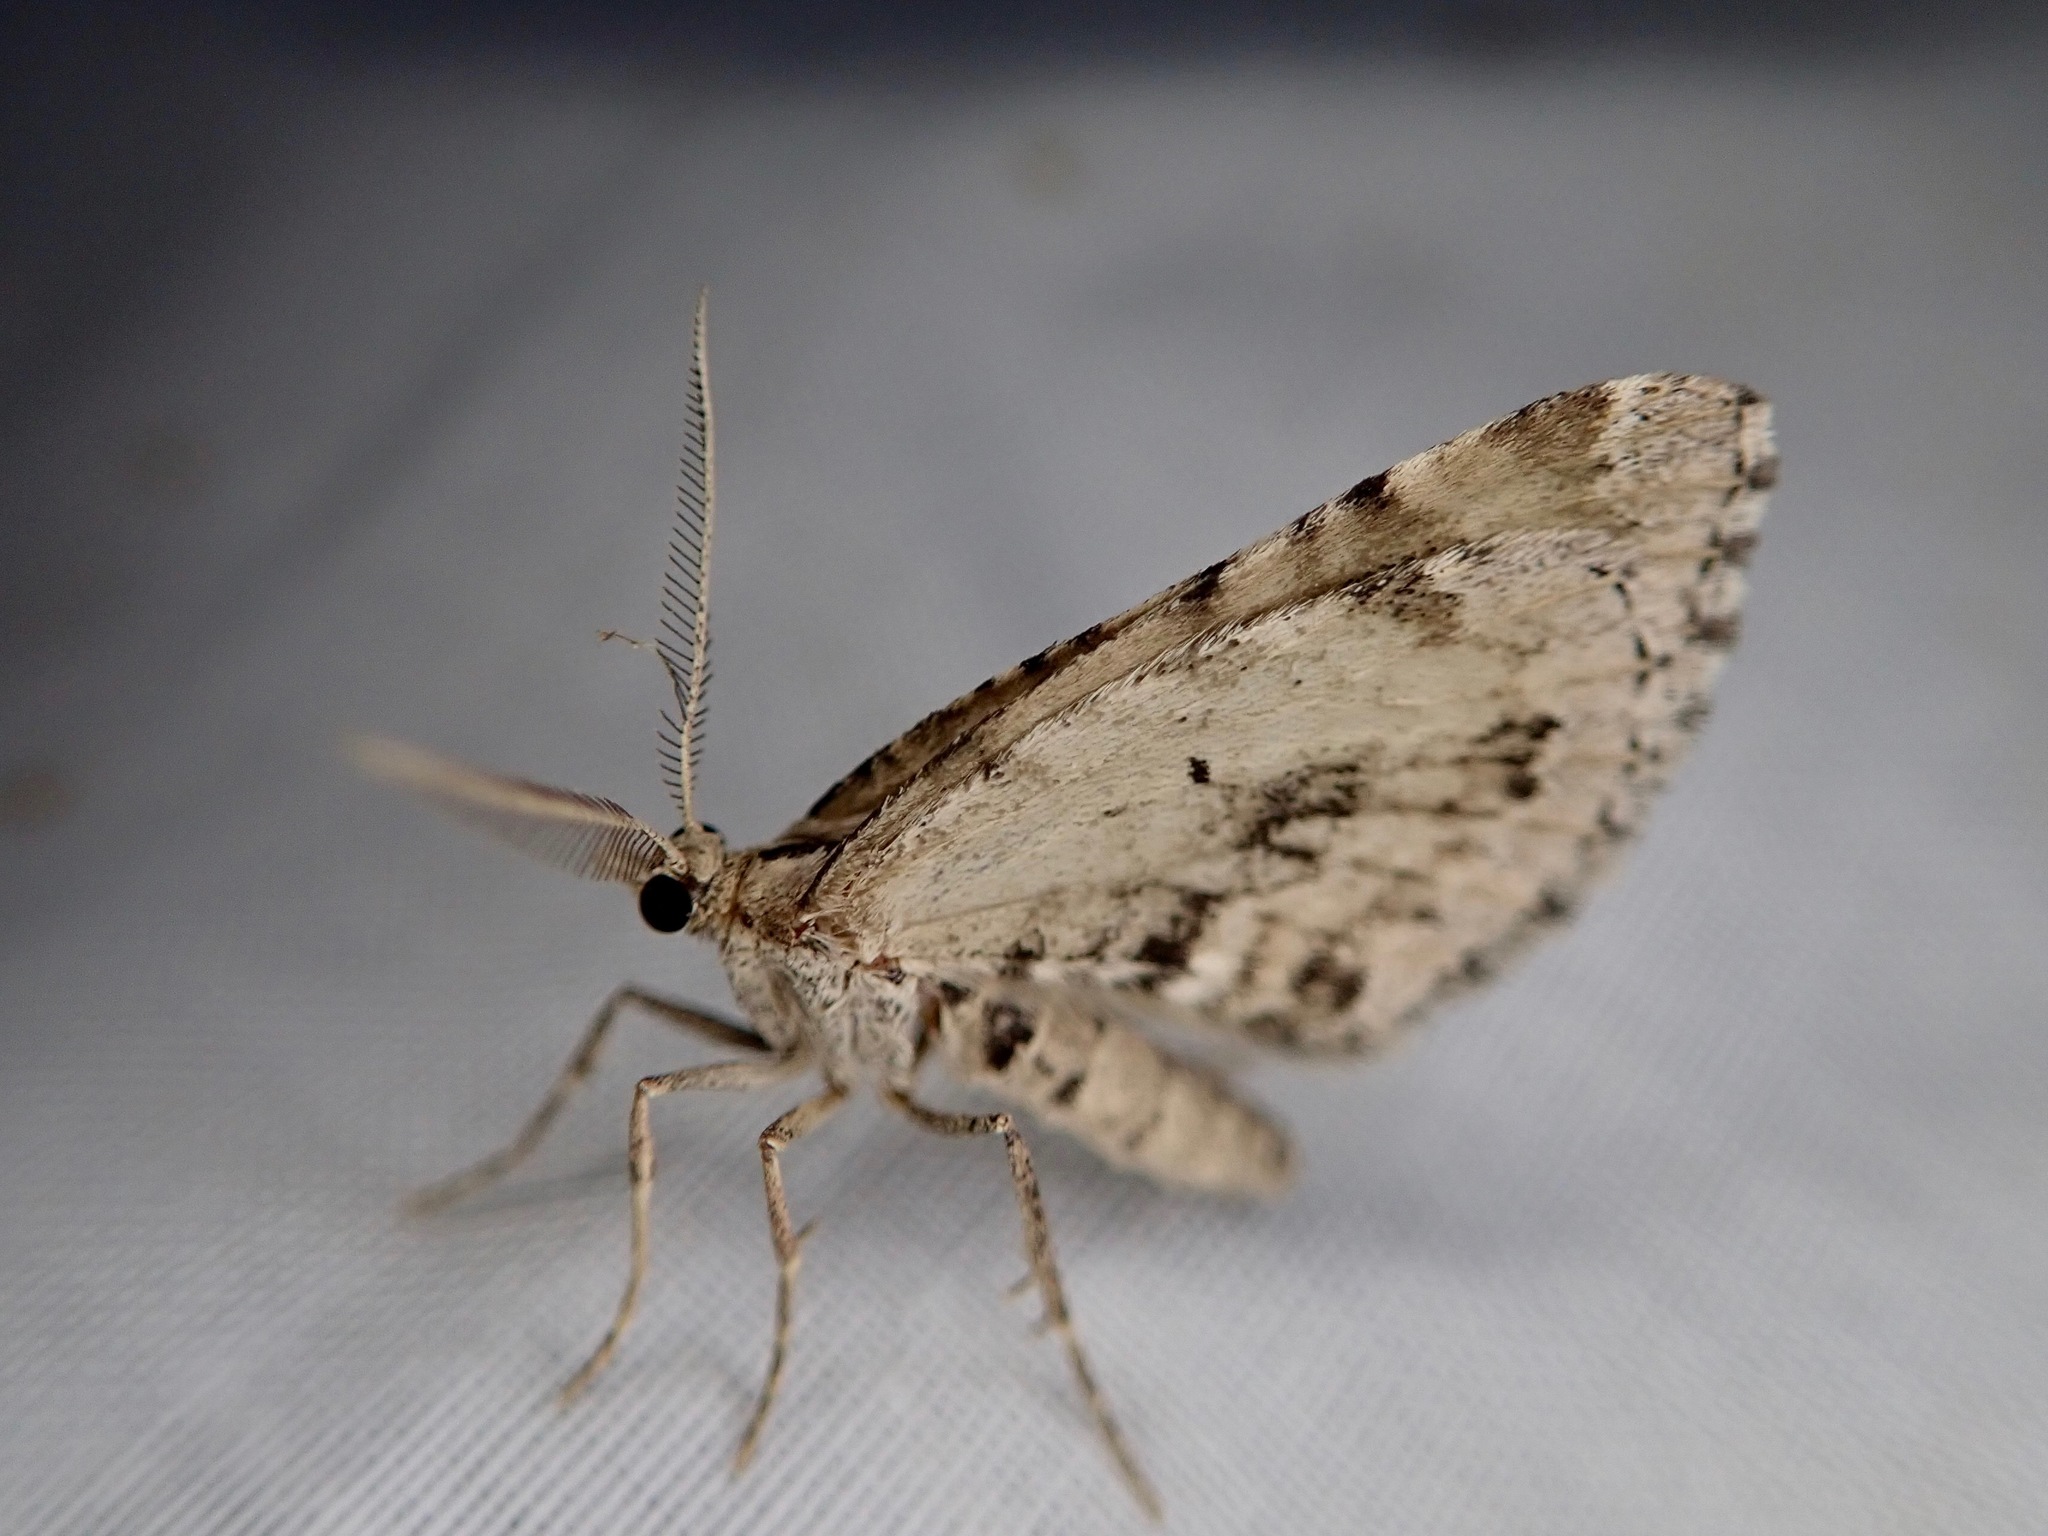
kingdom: Animalia
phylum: Arthropoda
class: Insecta
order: Lepidoptera
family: Geometridae
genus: Asaphodes
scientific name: Asaphodes aegrota
